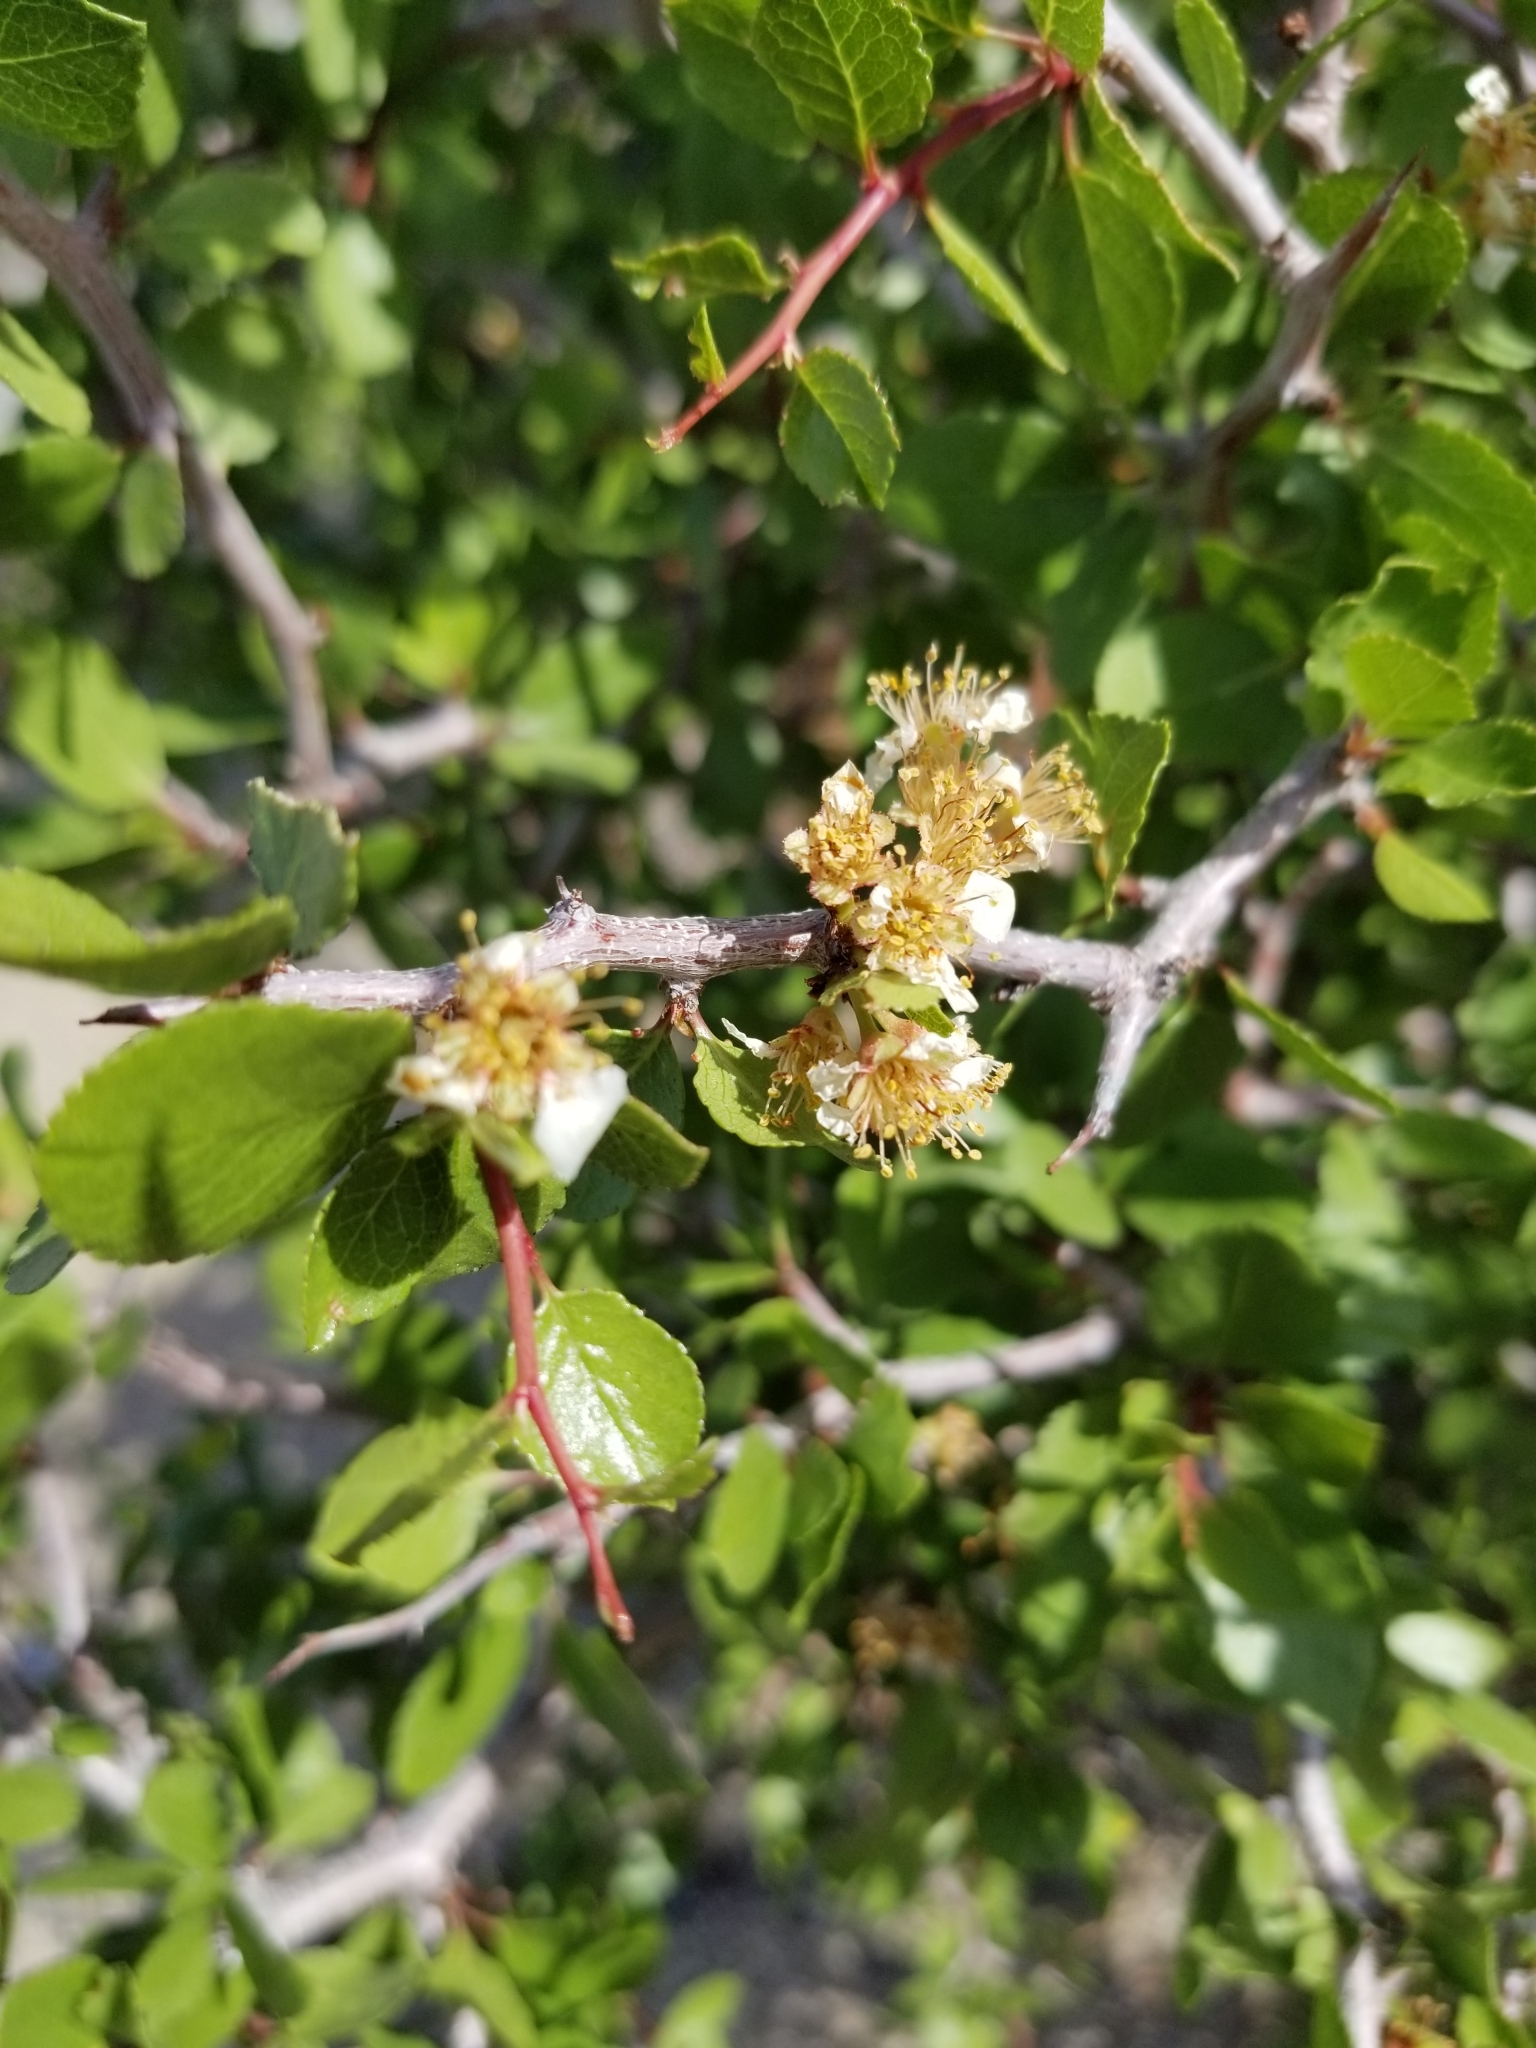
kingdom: Plantae
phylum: Tracheophyta
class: Magnoliopsida
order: Rosales
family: Rosaceae
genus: Prunus
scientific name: Prunus fremontii
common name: Desert apricot
